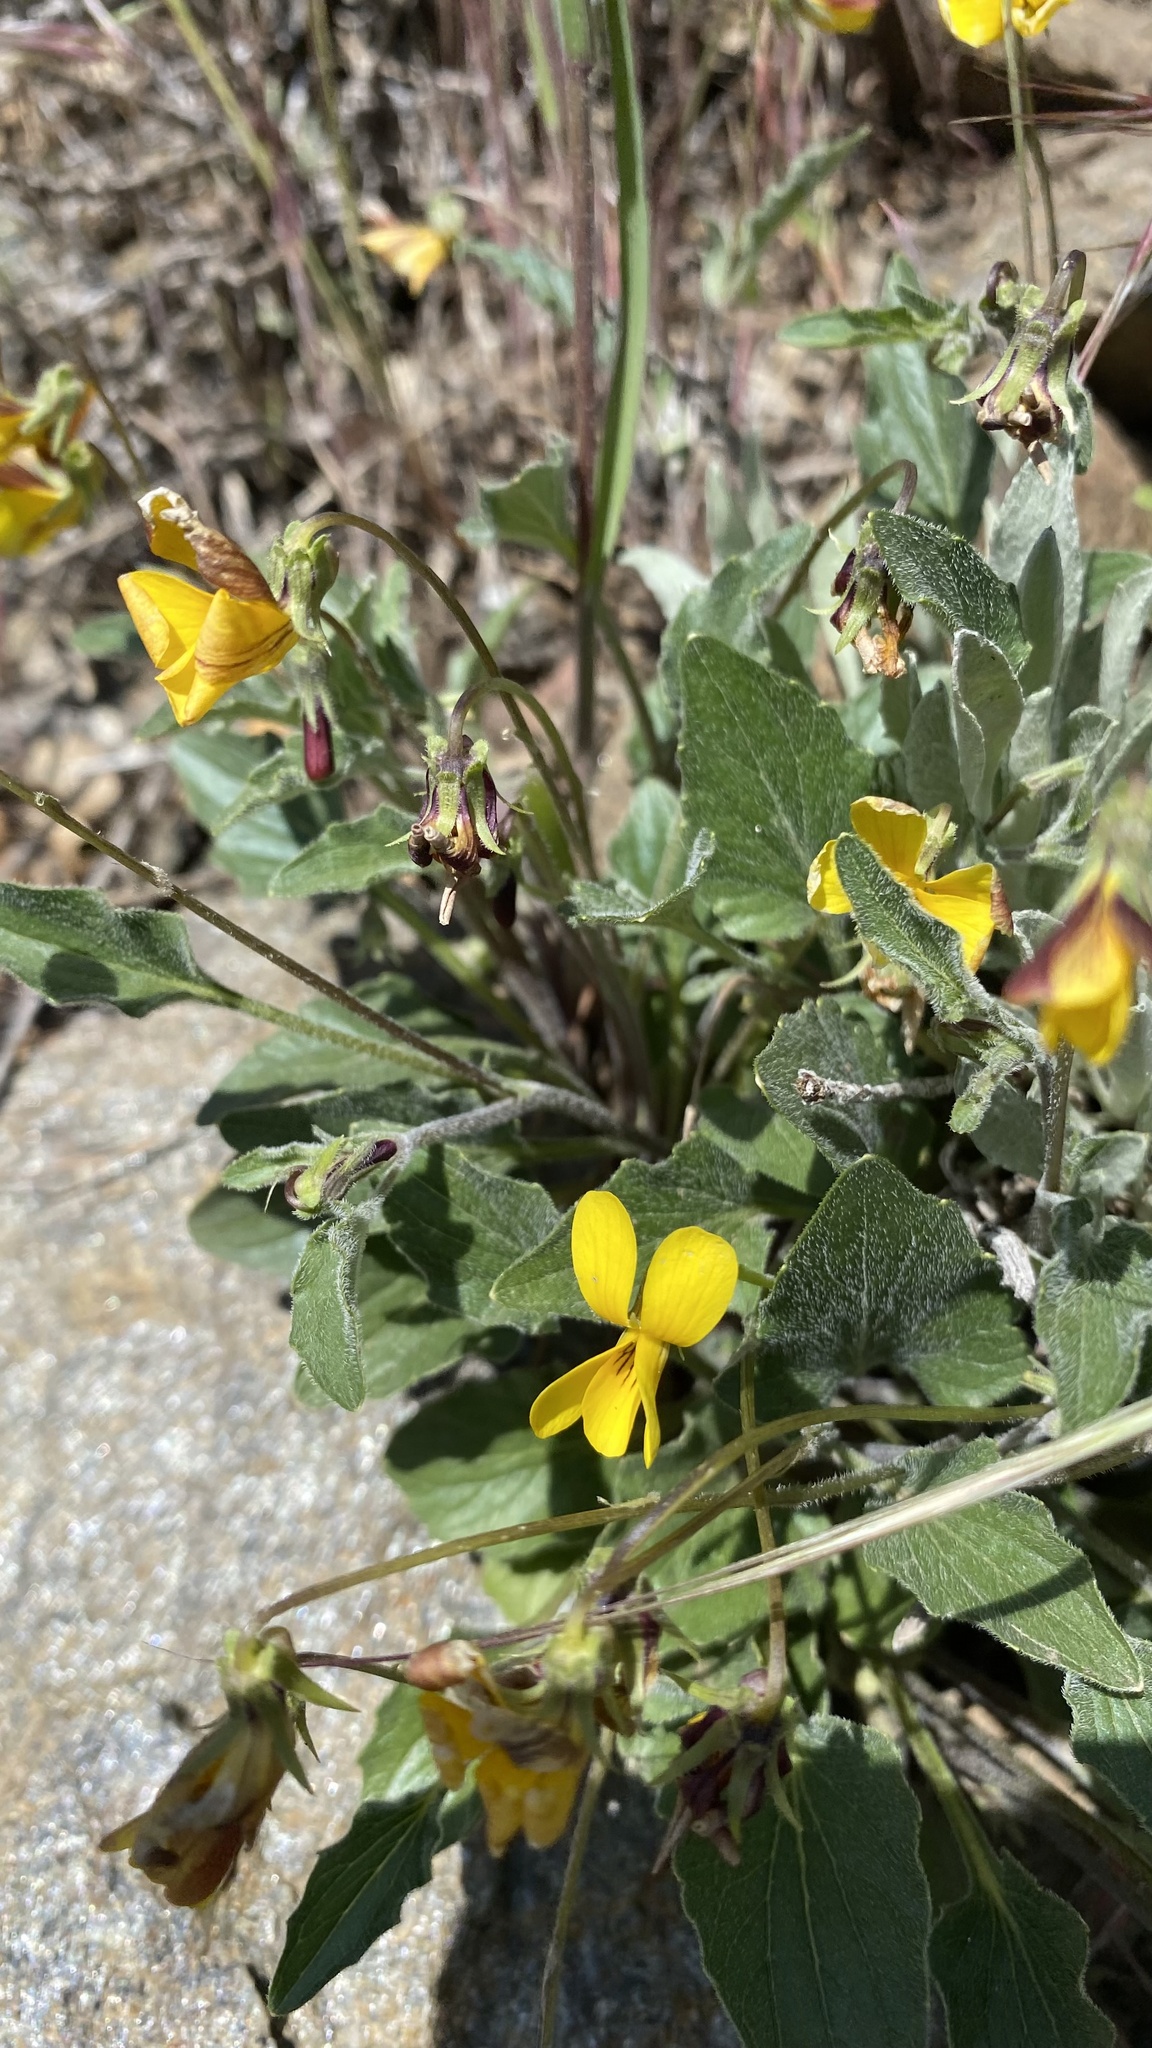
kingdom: Plantae
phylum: Tracheophyta
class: Magnoliopsida
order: Malpighiales
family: Violaceae
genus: Viola
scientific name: Viola quercetorum
